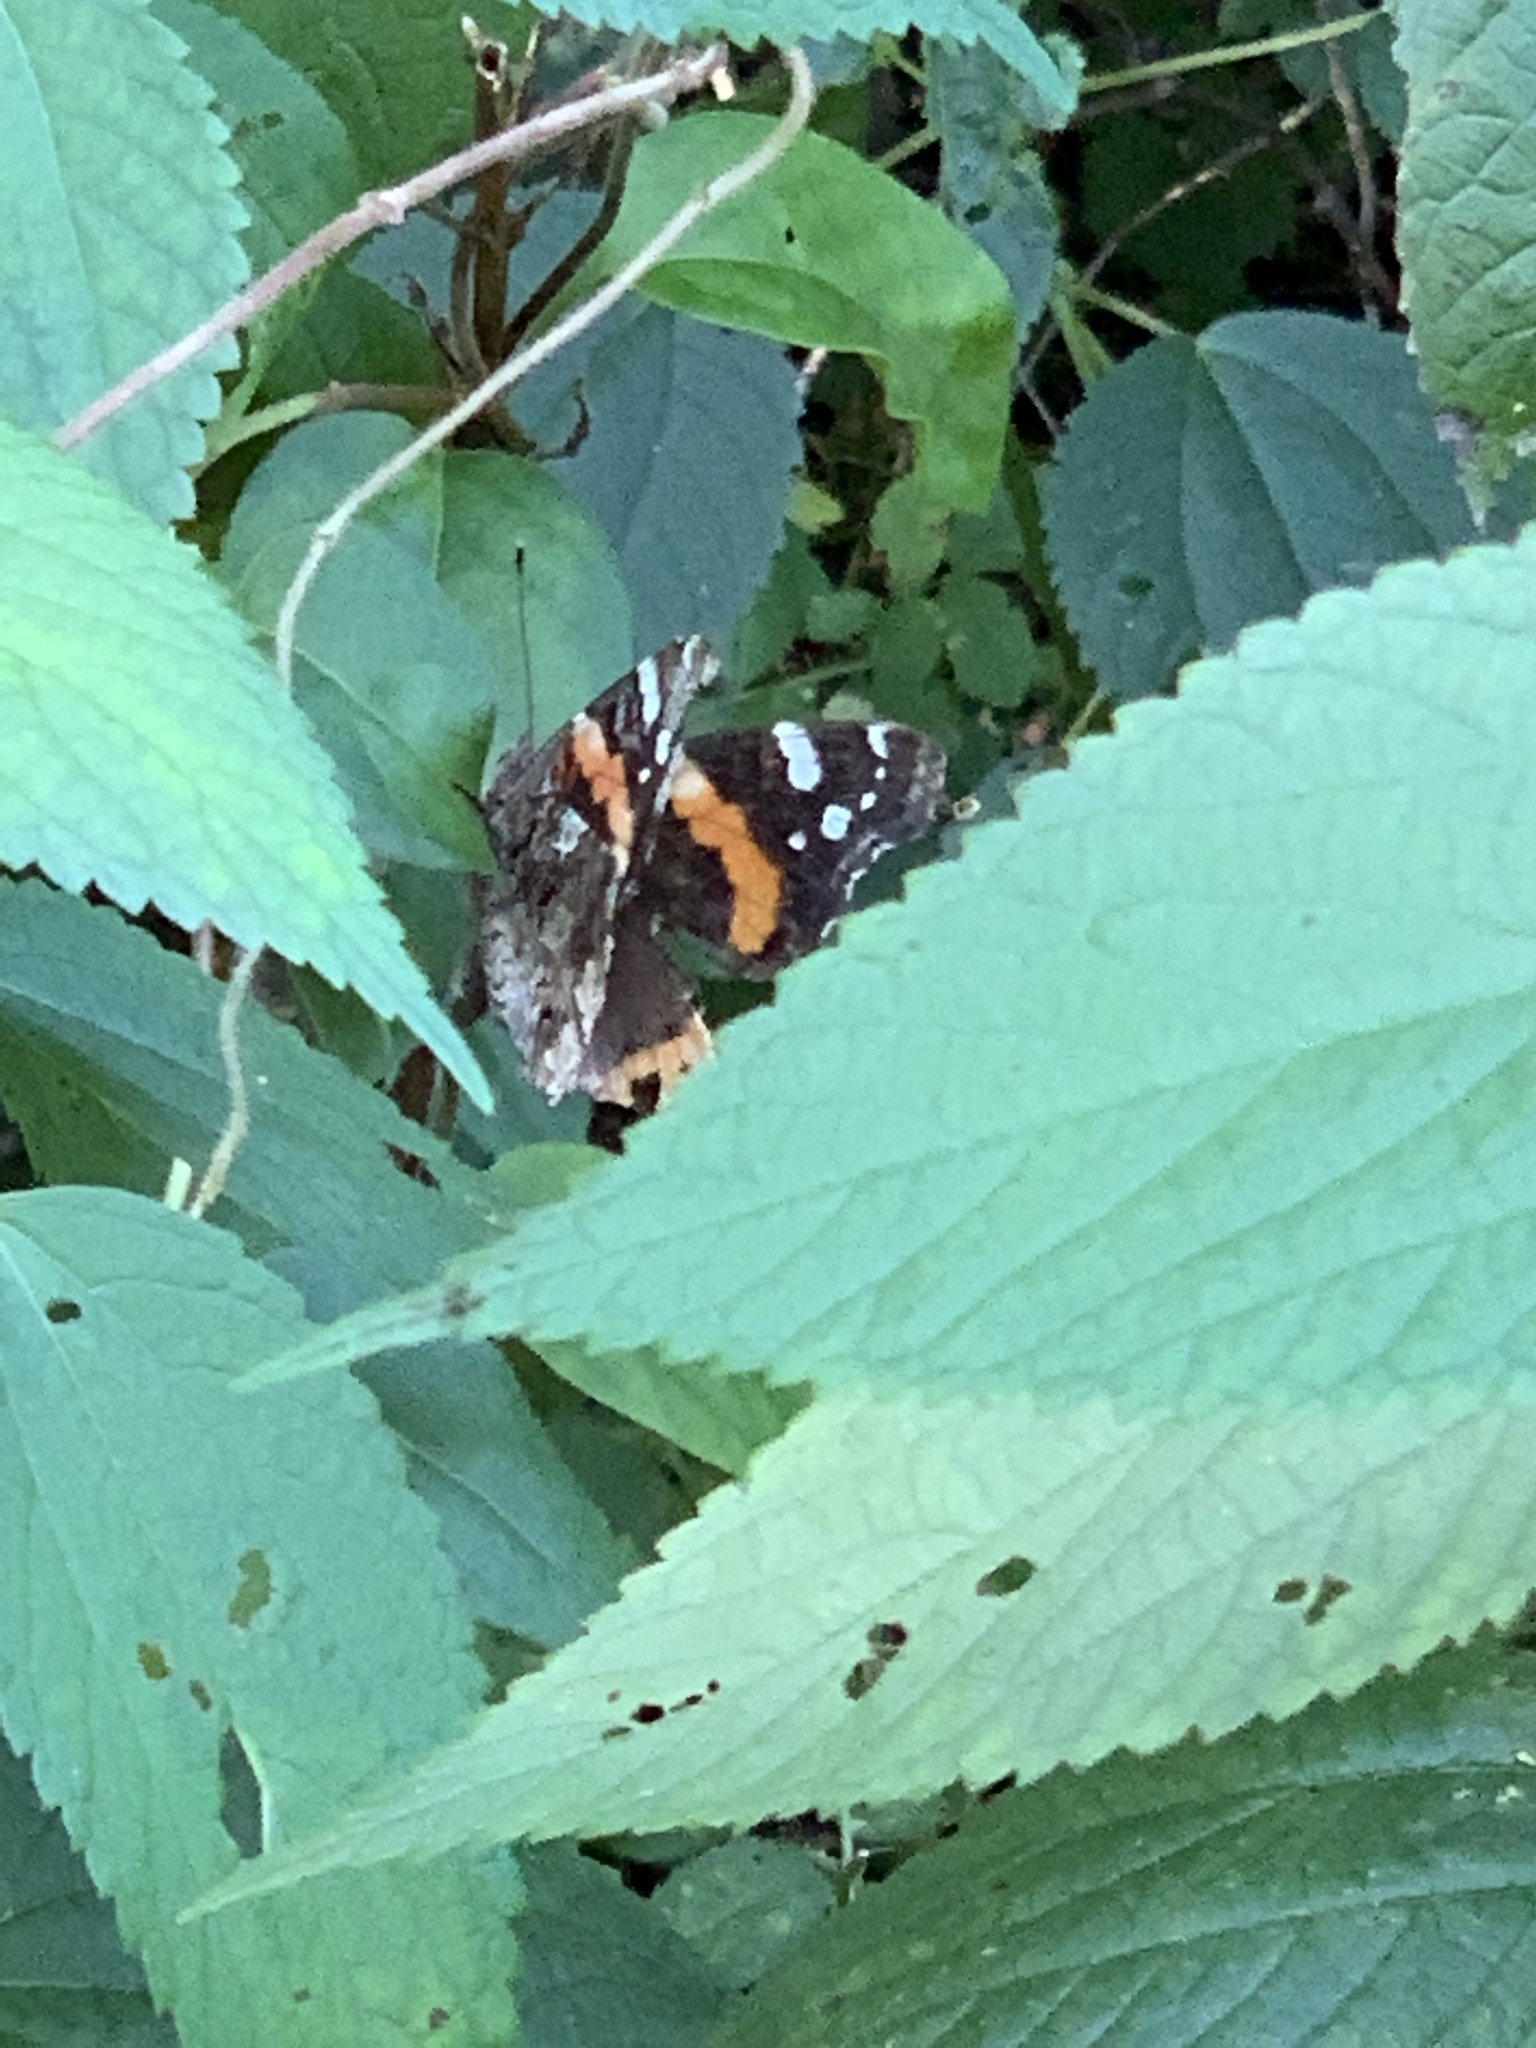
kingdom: Animalia
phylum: Arthropoda
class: Insecta
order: Lepidoptera
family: Nymphalidae
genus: Vanessa
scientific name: Vanessa atalanta
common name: Red admiral
